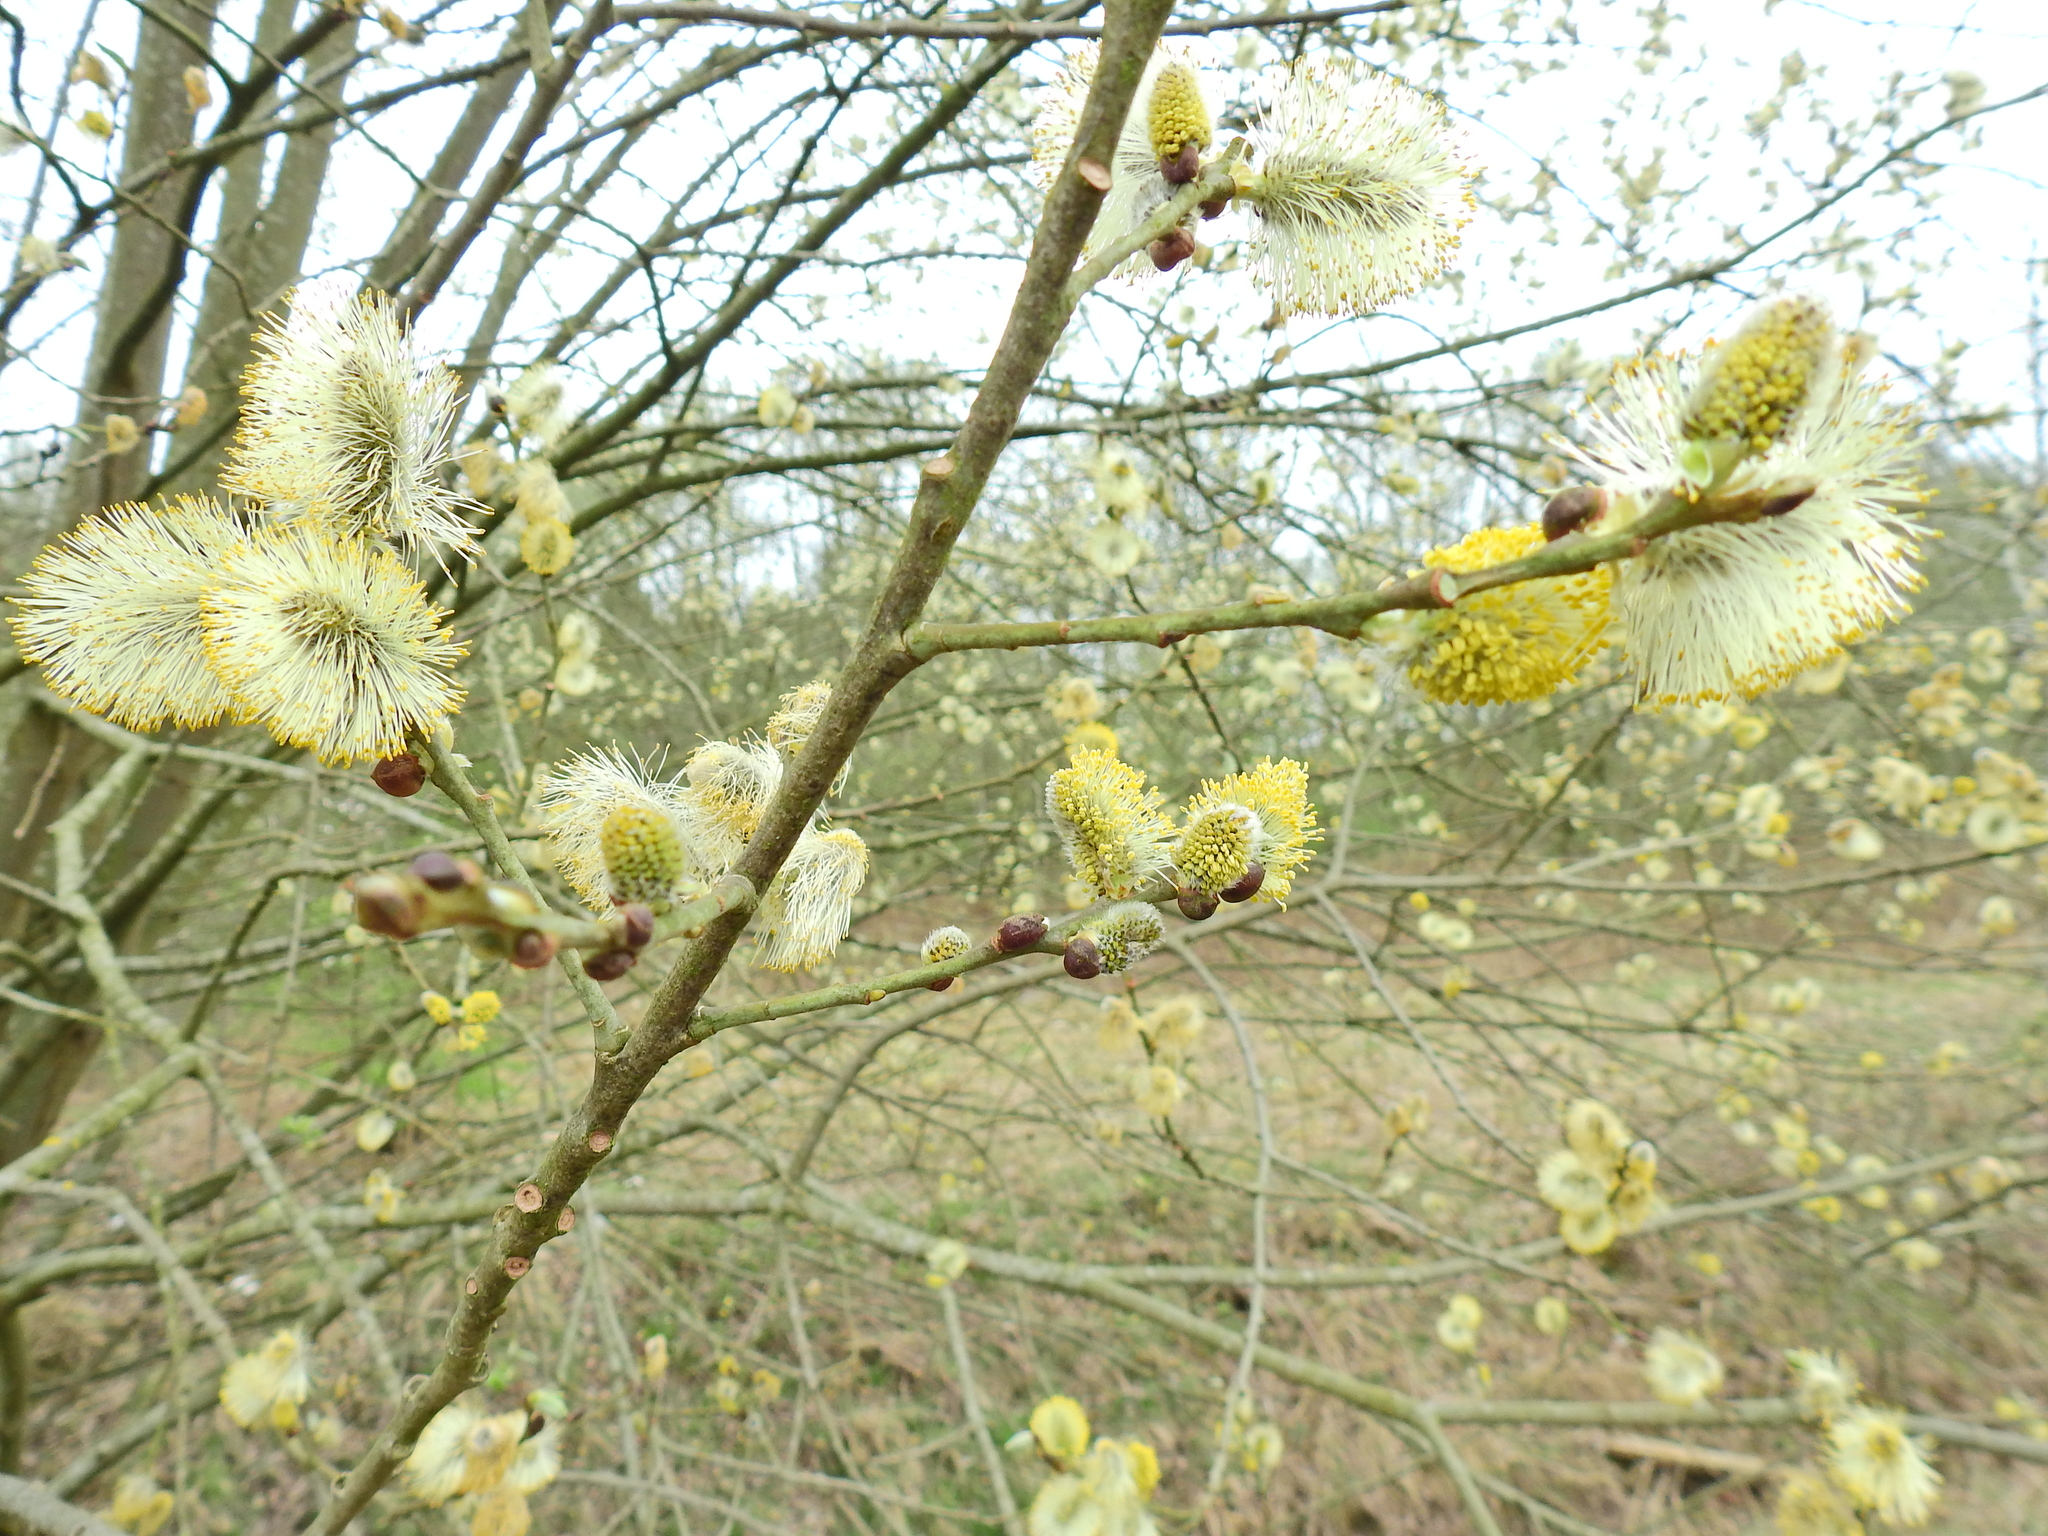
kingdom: Plantae
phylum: Tracheophyta
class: Magnoliopsida
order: Malpighiales
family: Salicaceae
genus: Salix
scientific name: Salix caprea
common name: Goat willow
